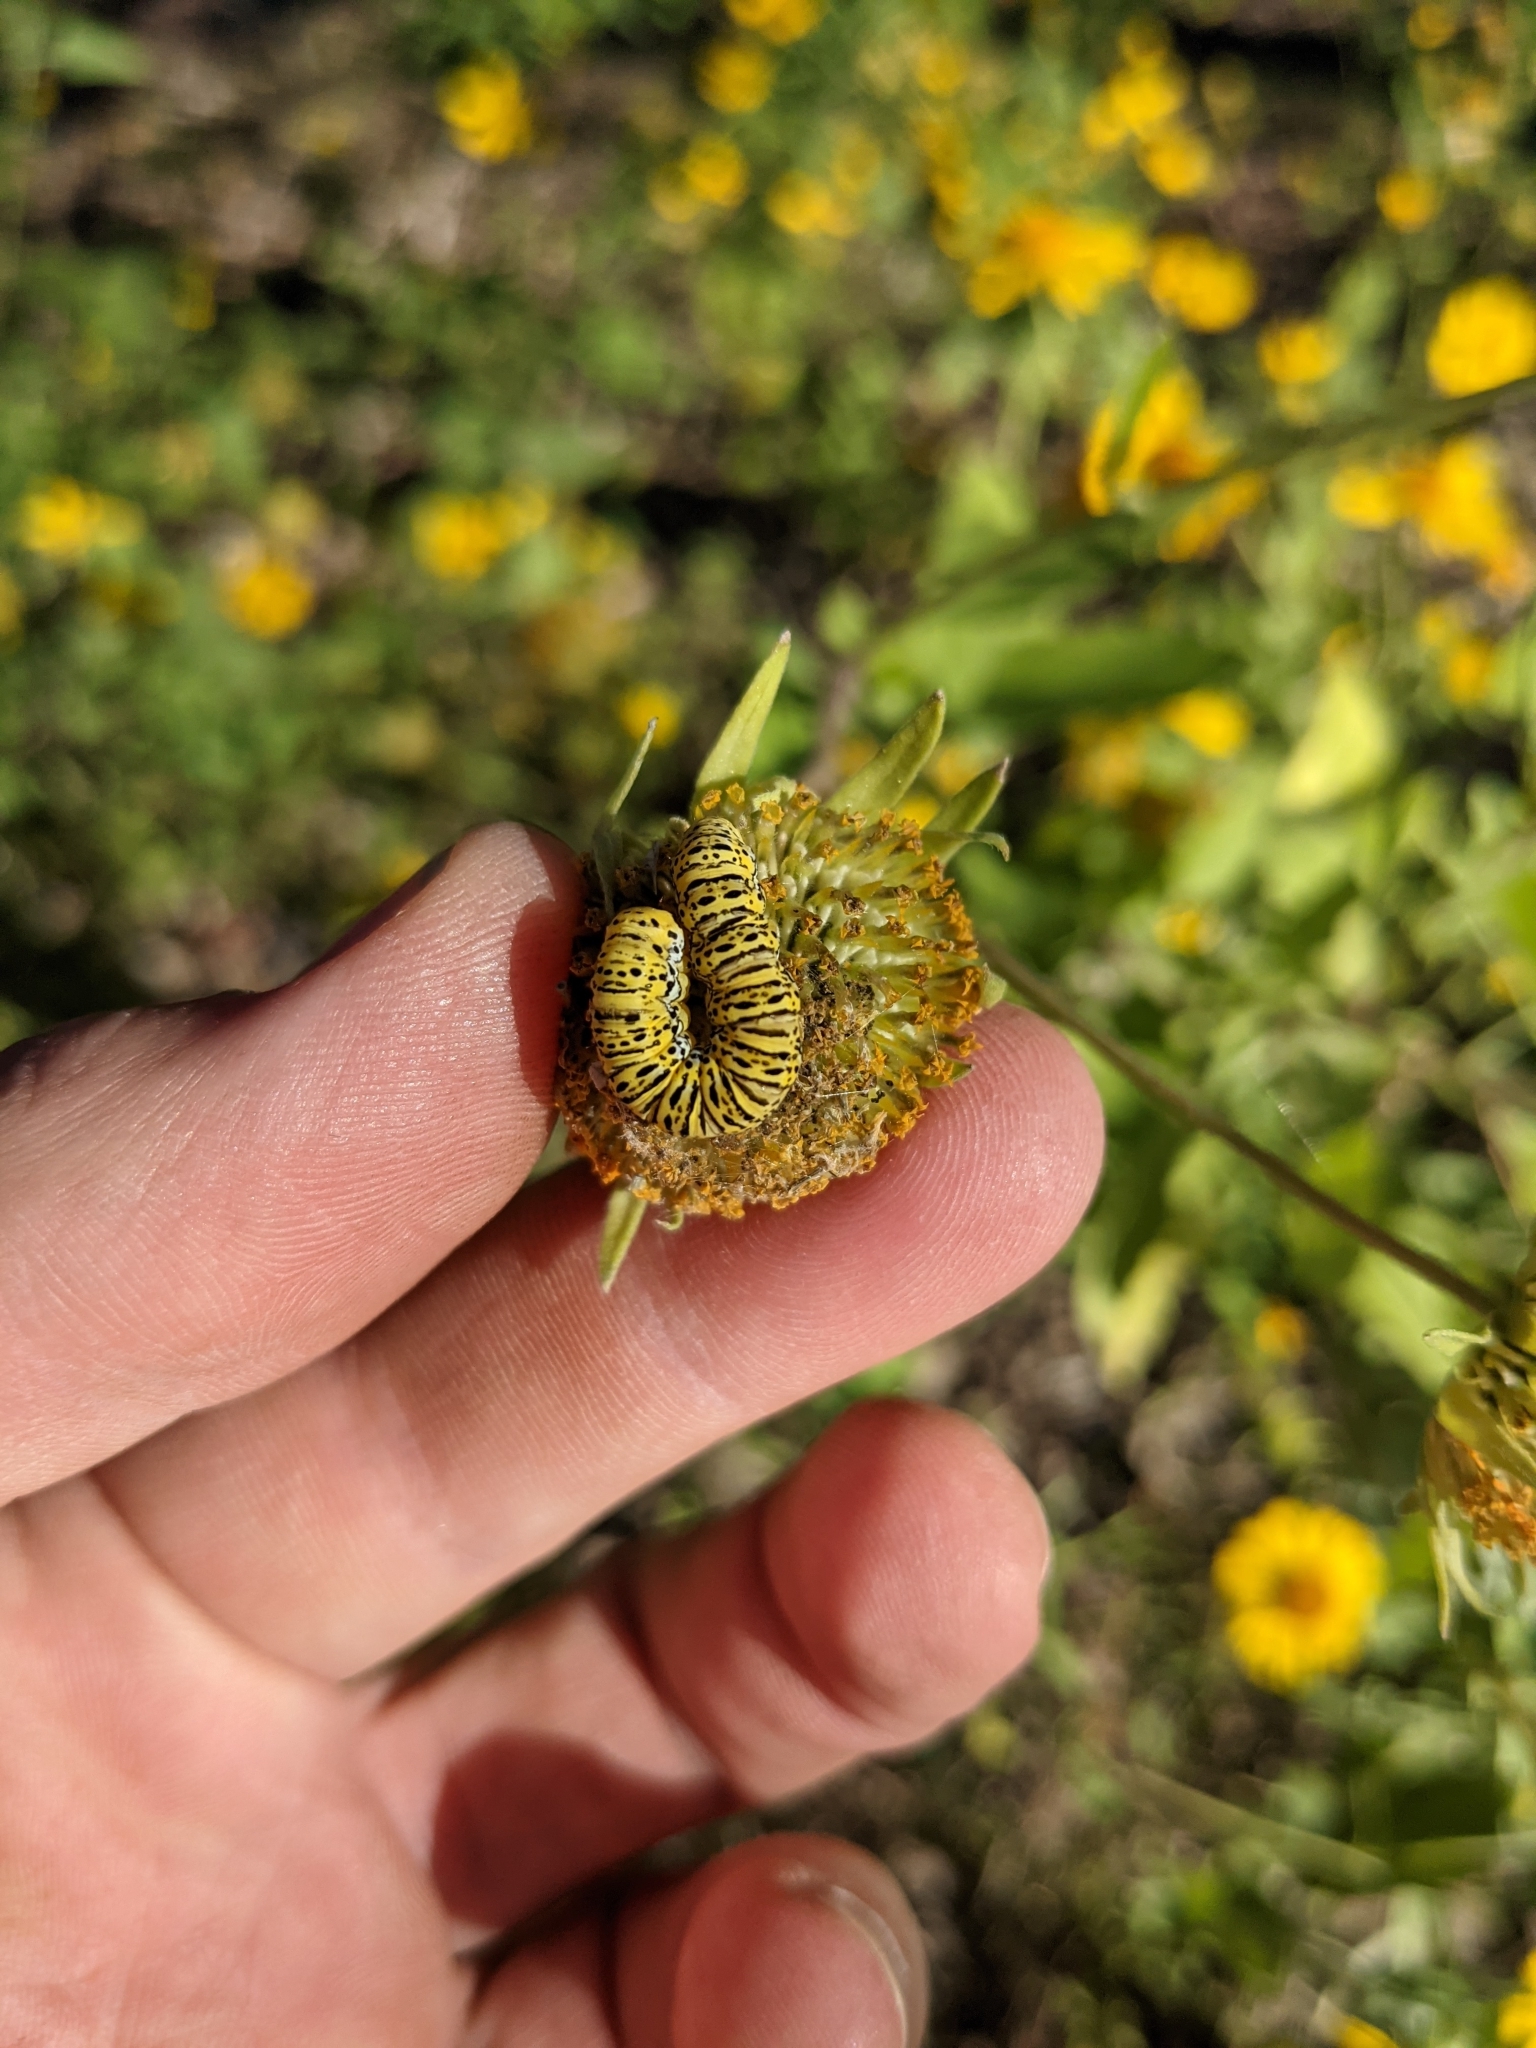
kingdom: Animalia
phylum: Arthropoda
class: Insecta
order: Lepidoptera
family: Noctuidae
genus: Basilodes
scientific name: Basilodes chrysopis
